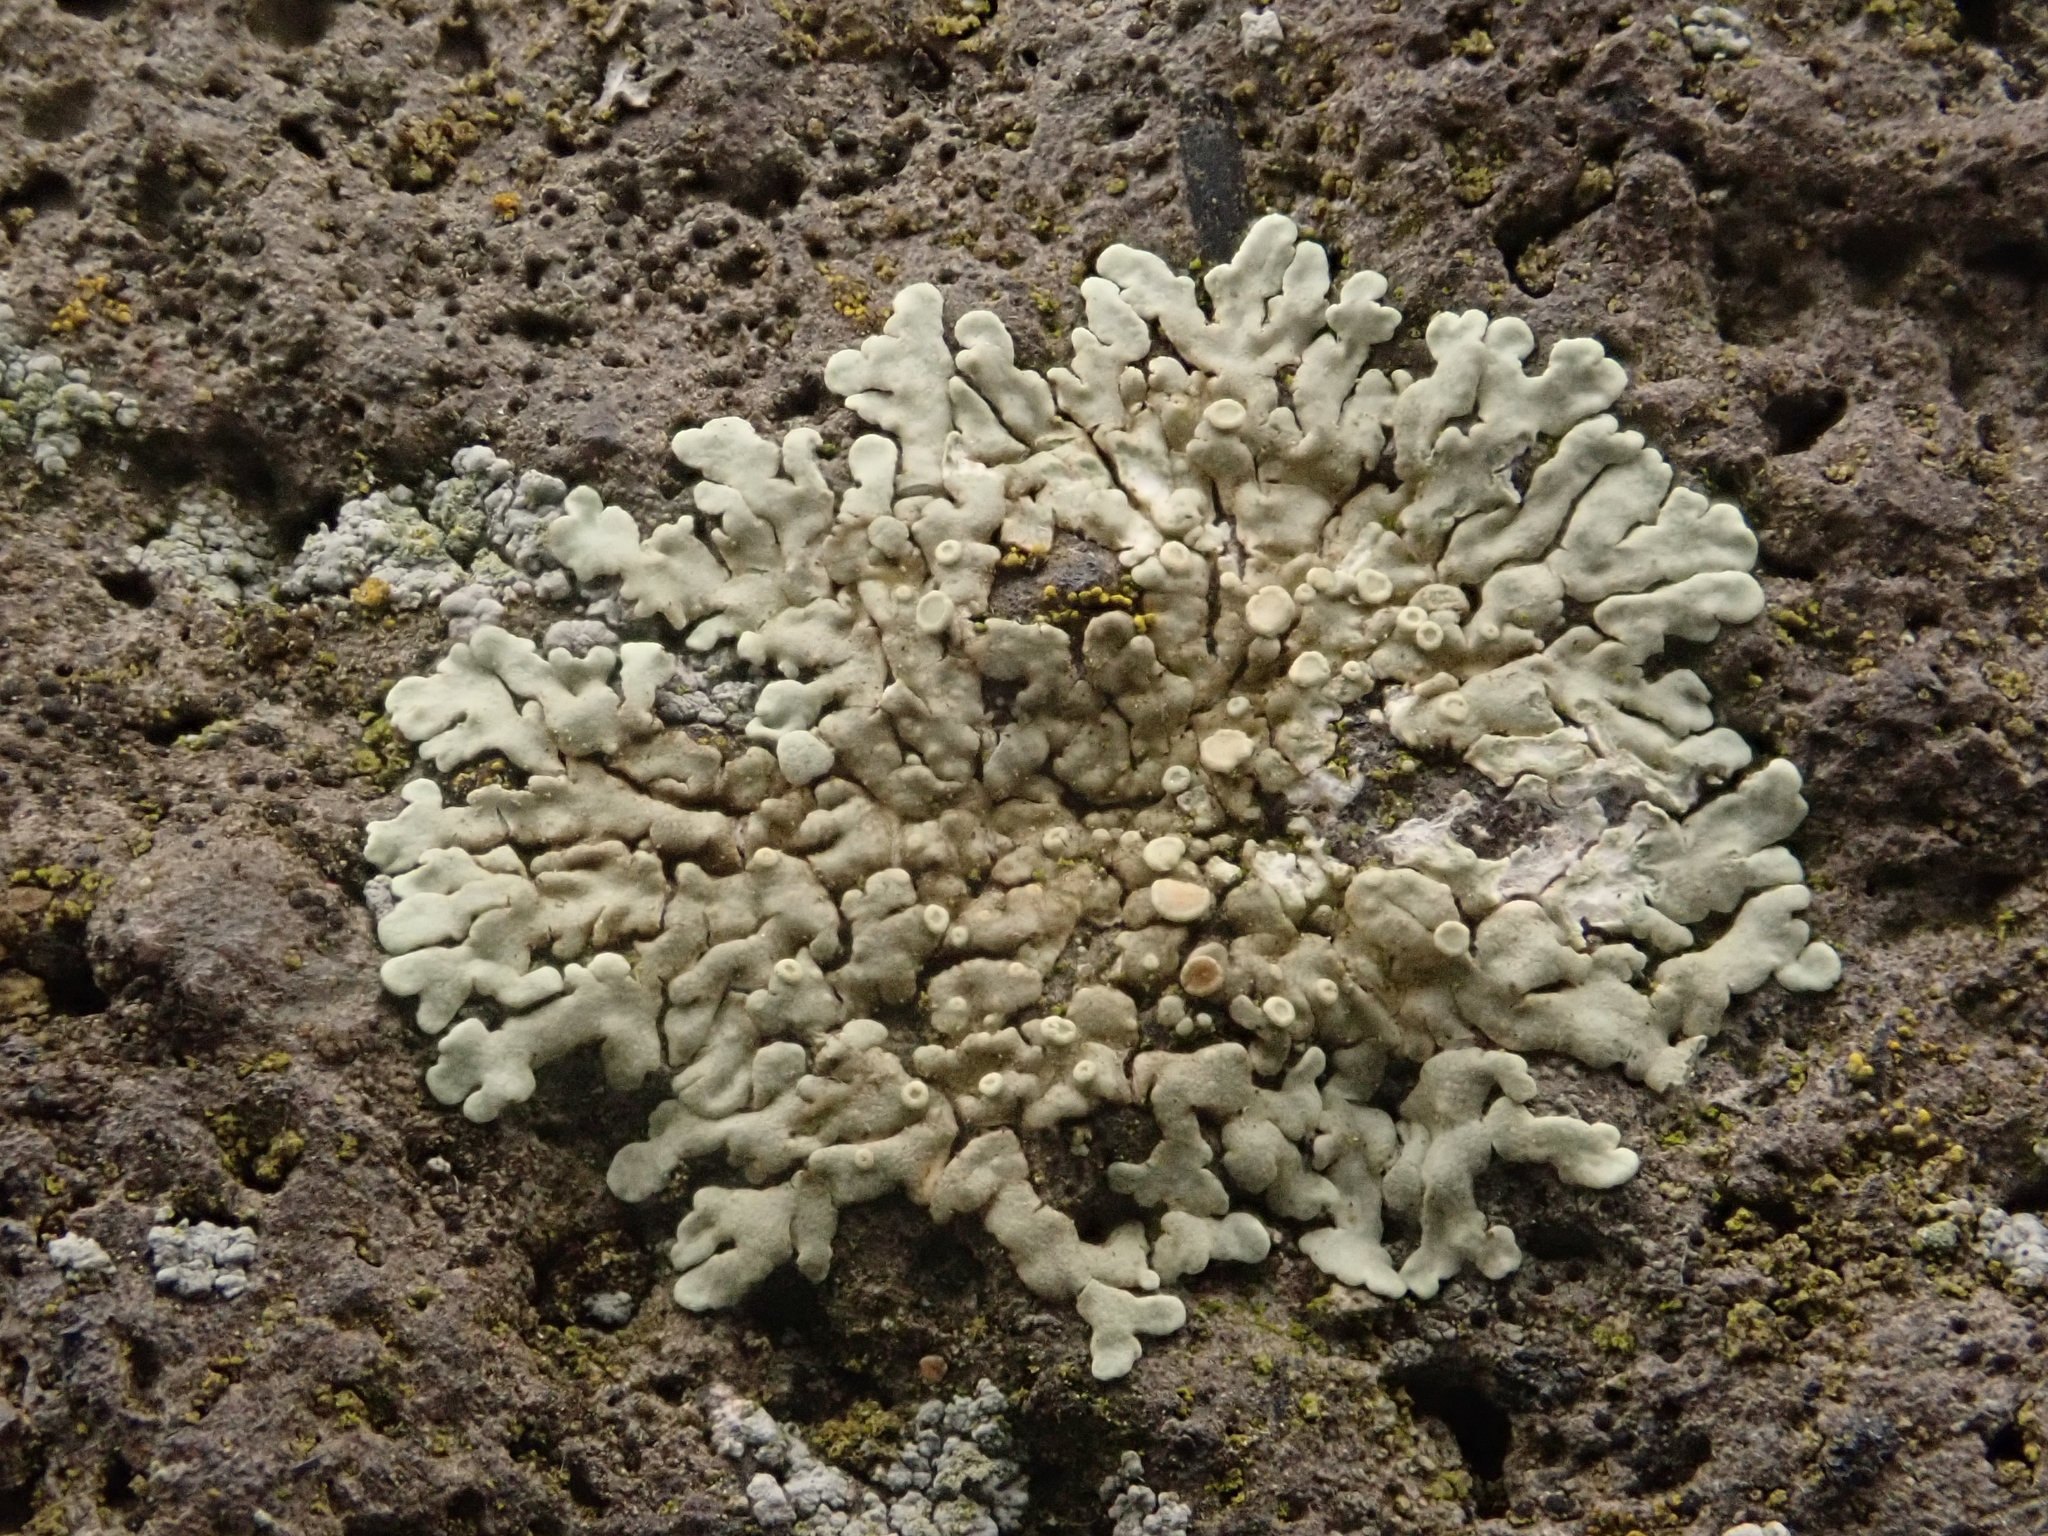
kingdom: Fungi
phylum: Ascomycota
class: Lecanoromycetes
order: Lecanorales
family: Lecanoraceae
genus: Protoparmeliopsis
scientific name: Protoparmeliopsis muralis
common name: Stonewall rim lichen
